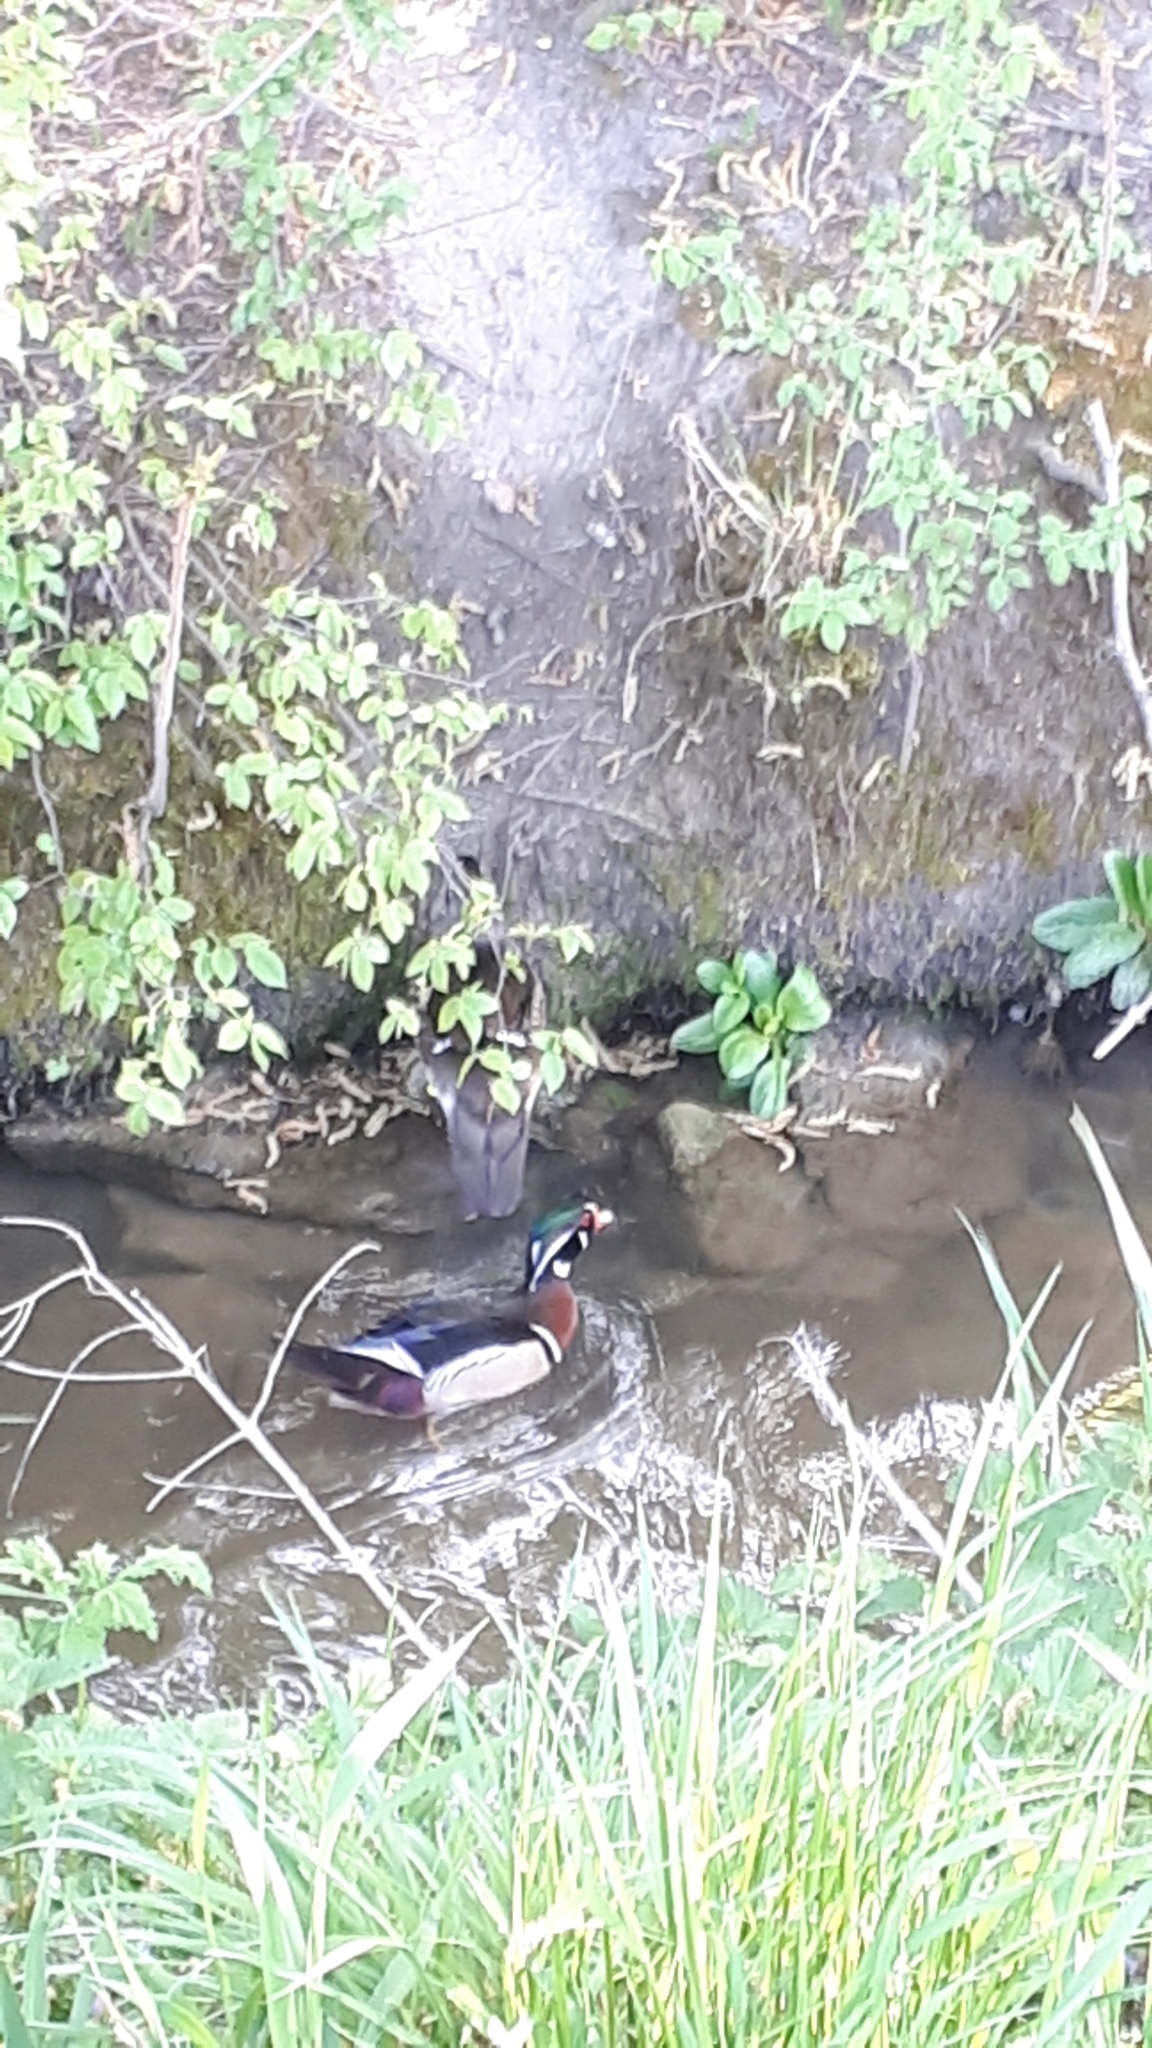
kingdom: Animalia
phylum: Chordata
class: Aves
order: Anseriformes
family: Anatidae
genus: Aix
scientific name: Aix sponsa
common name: Wood duck
